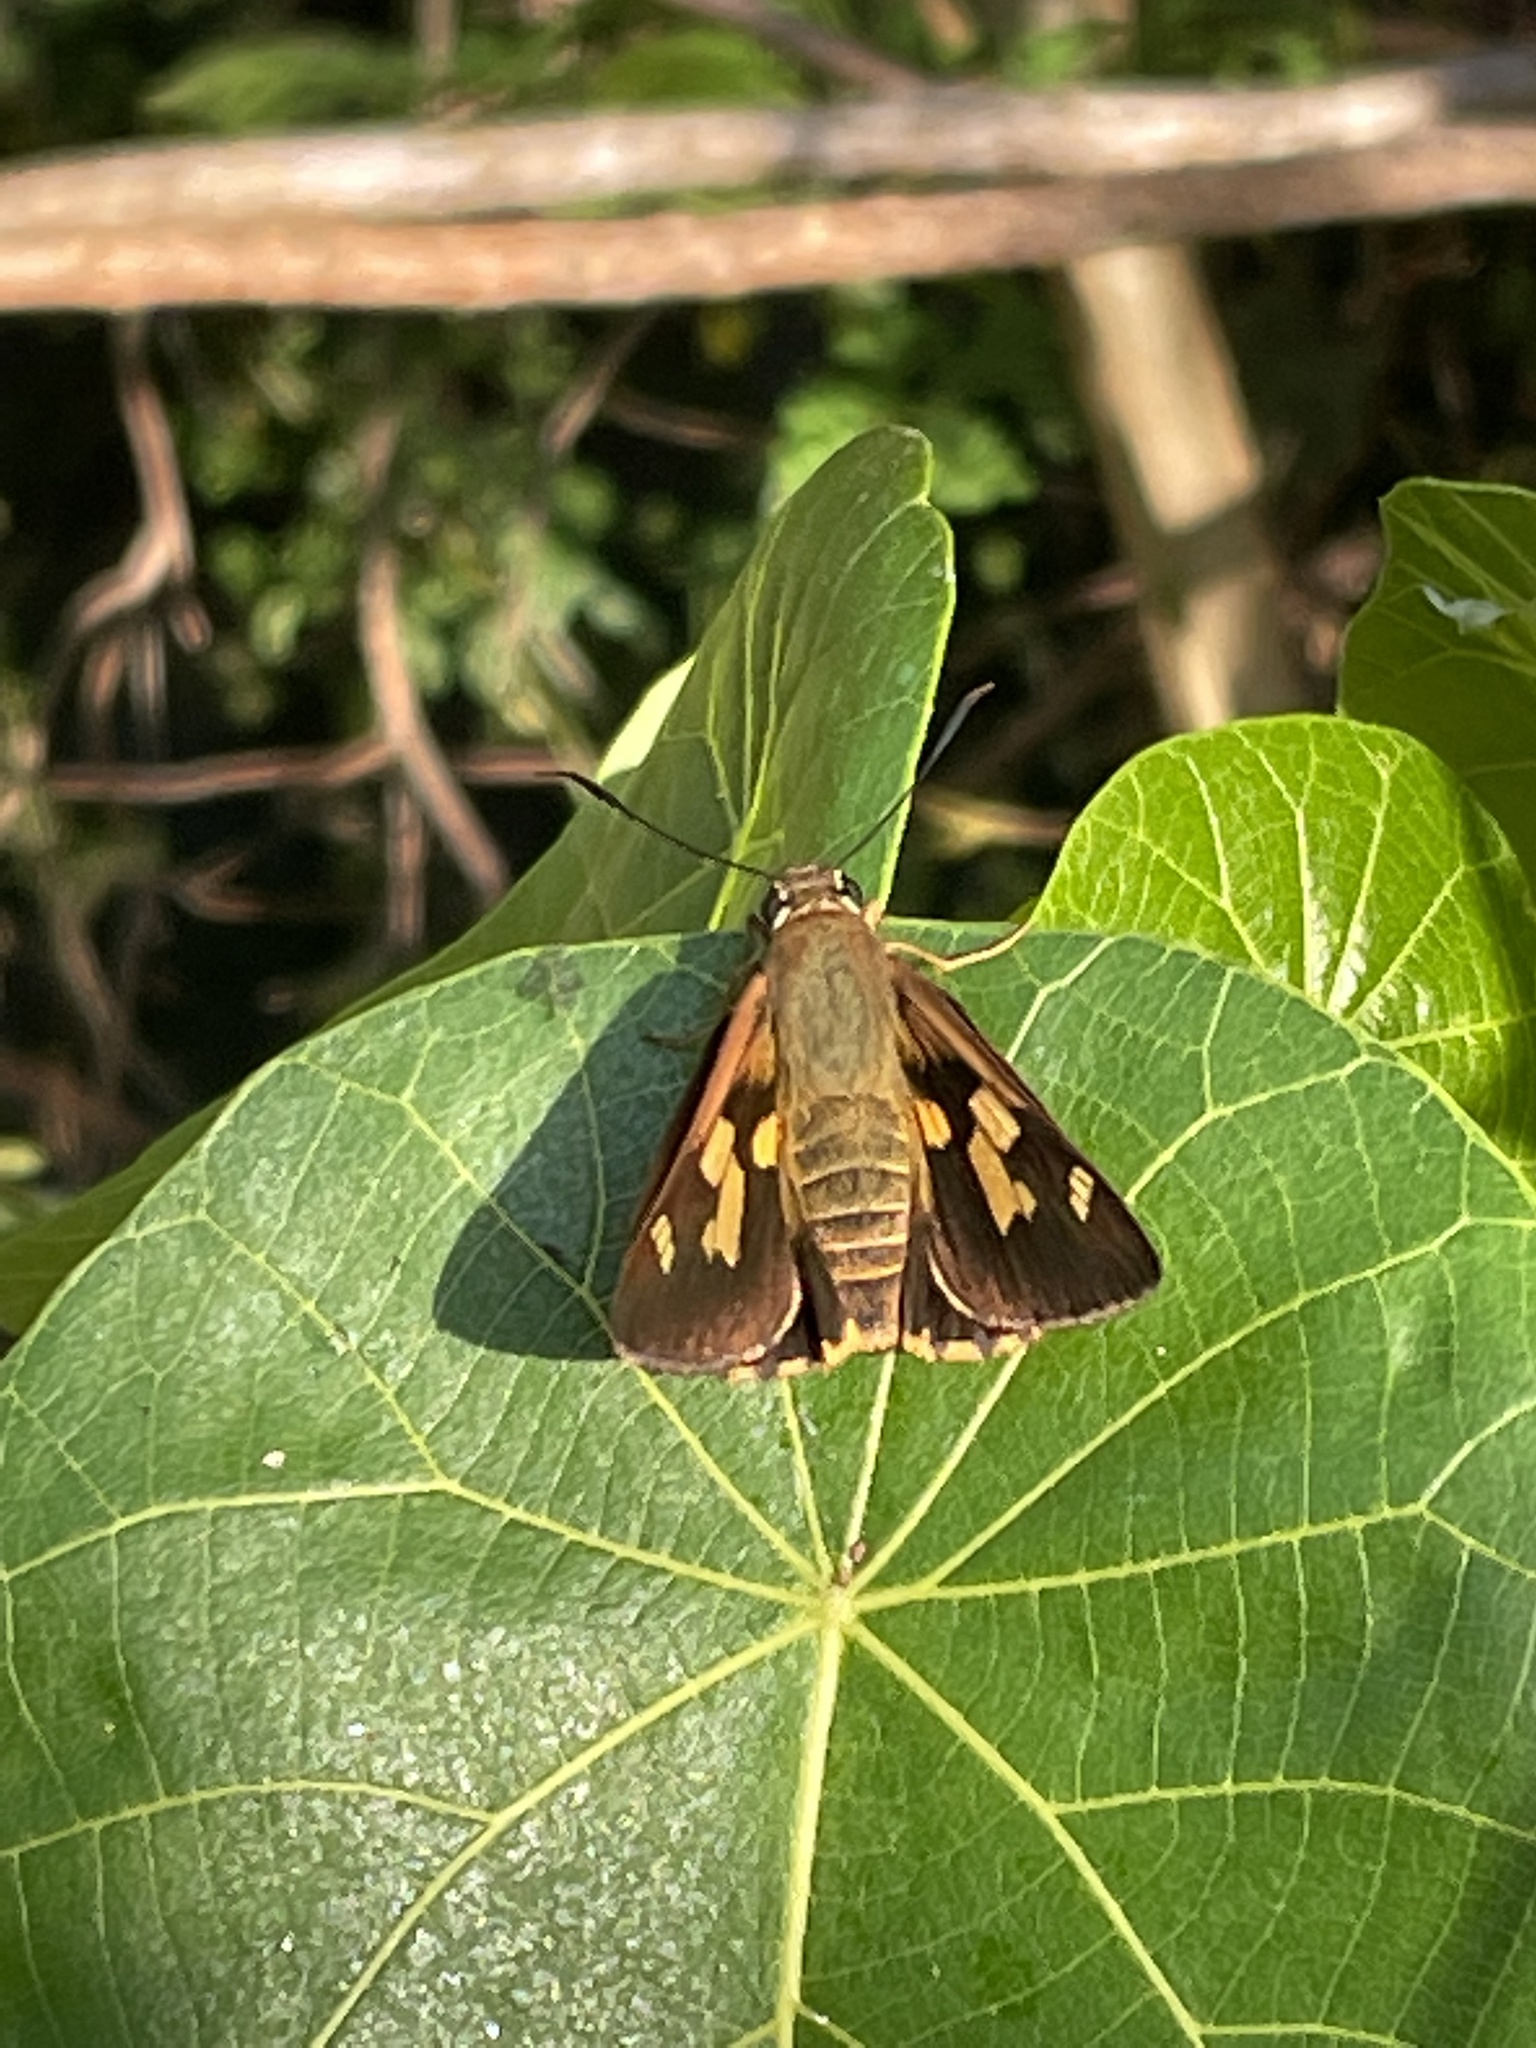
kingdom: Animalia
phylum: Arthropoda
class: Insecta
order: Lepidoptera
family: Hesperiidae
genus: Trapezites
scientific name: Trapezites symmomus
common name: Splendid ochre
